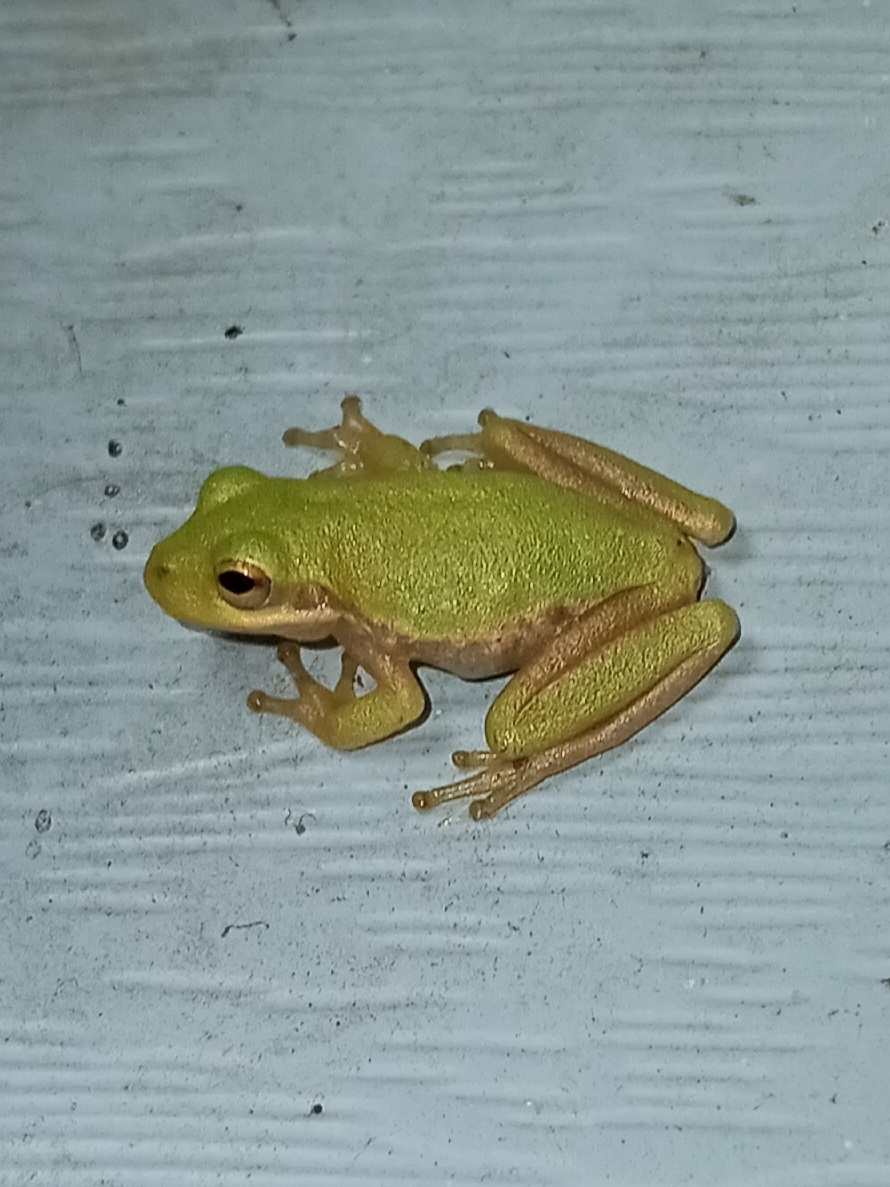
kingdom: Animalia
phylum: Chordata
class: Amphibia
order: Anura
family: Hylidae
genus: Dryophytes
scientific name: Dryophytes squirellus
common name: Squirrel treefrog
